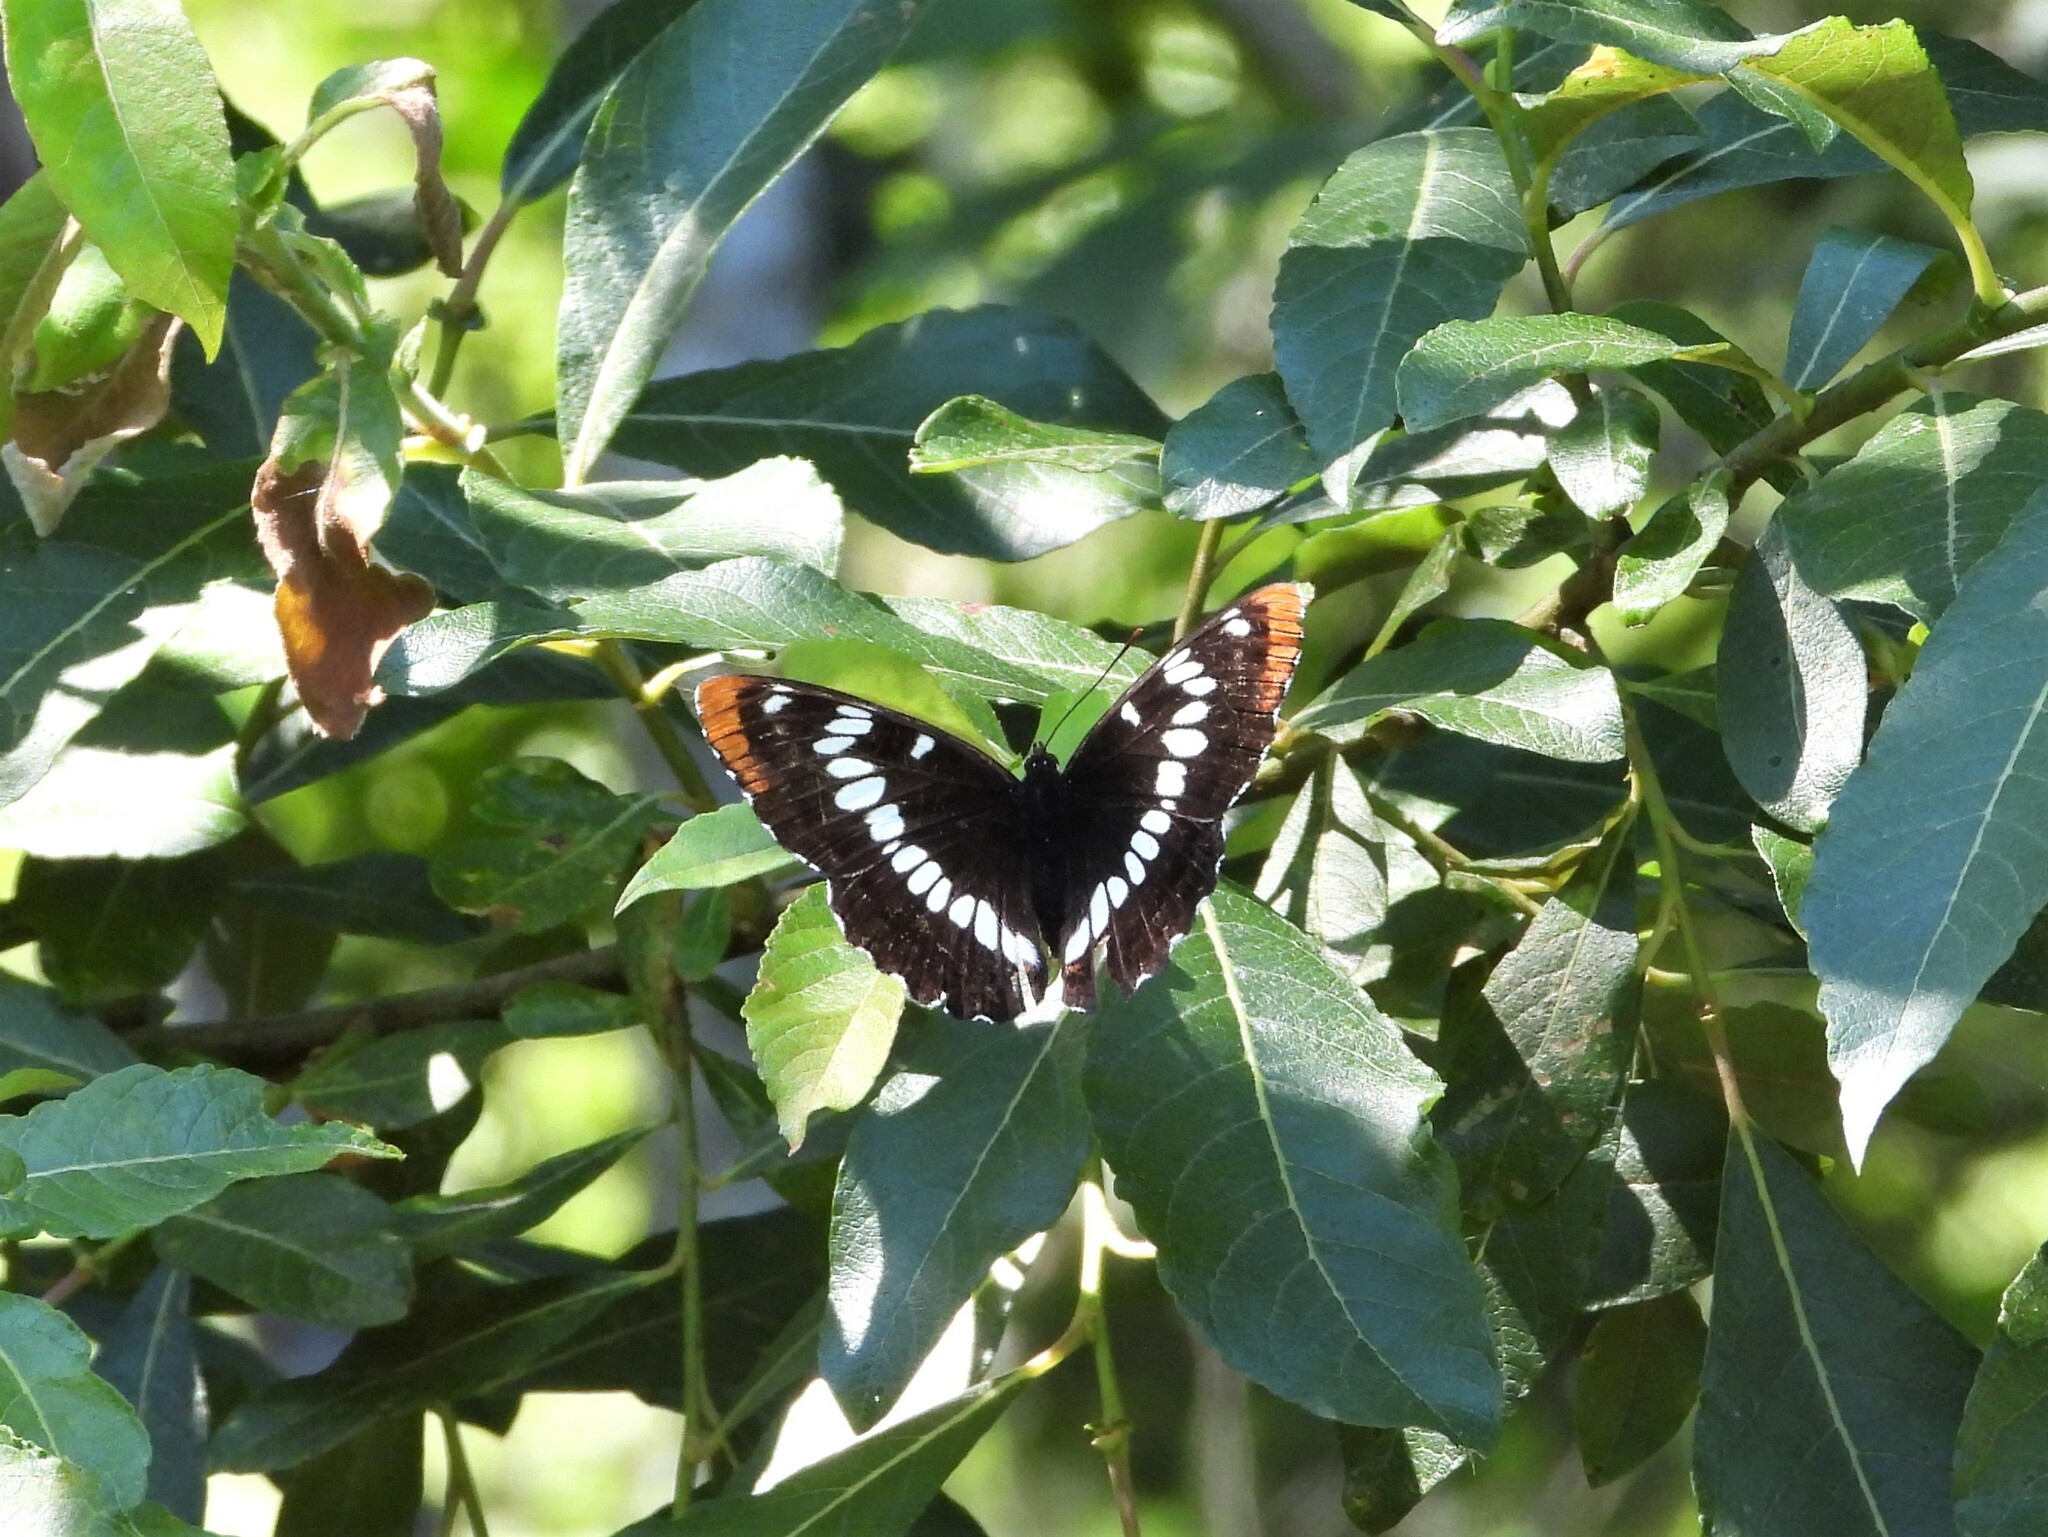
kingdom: Animalia
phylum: Arthropoda
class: Insecta
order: Lepidoptera
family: Nymphalidae
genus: Limenitis
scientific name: Limenitis lorquini
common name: Lorquin's admiral
